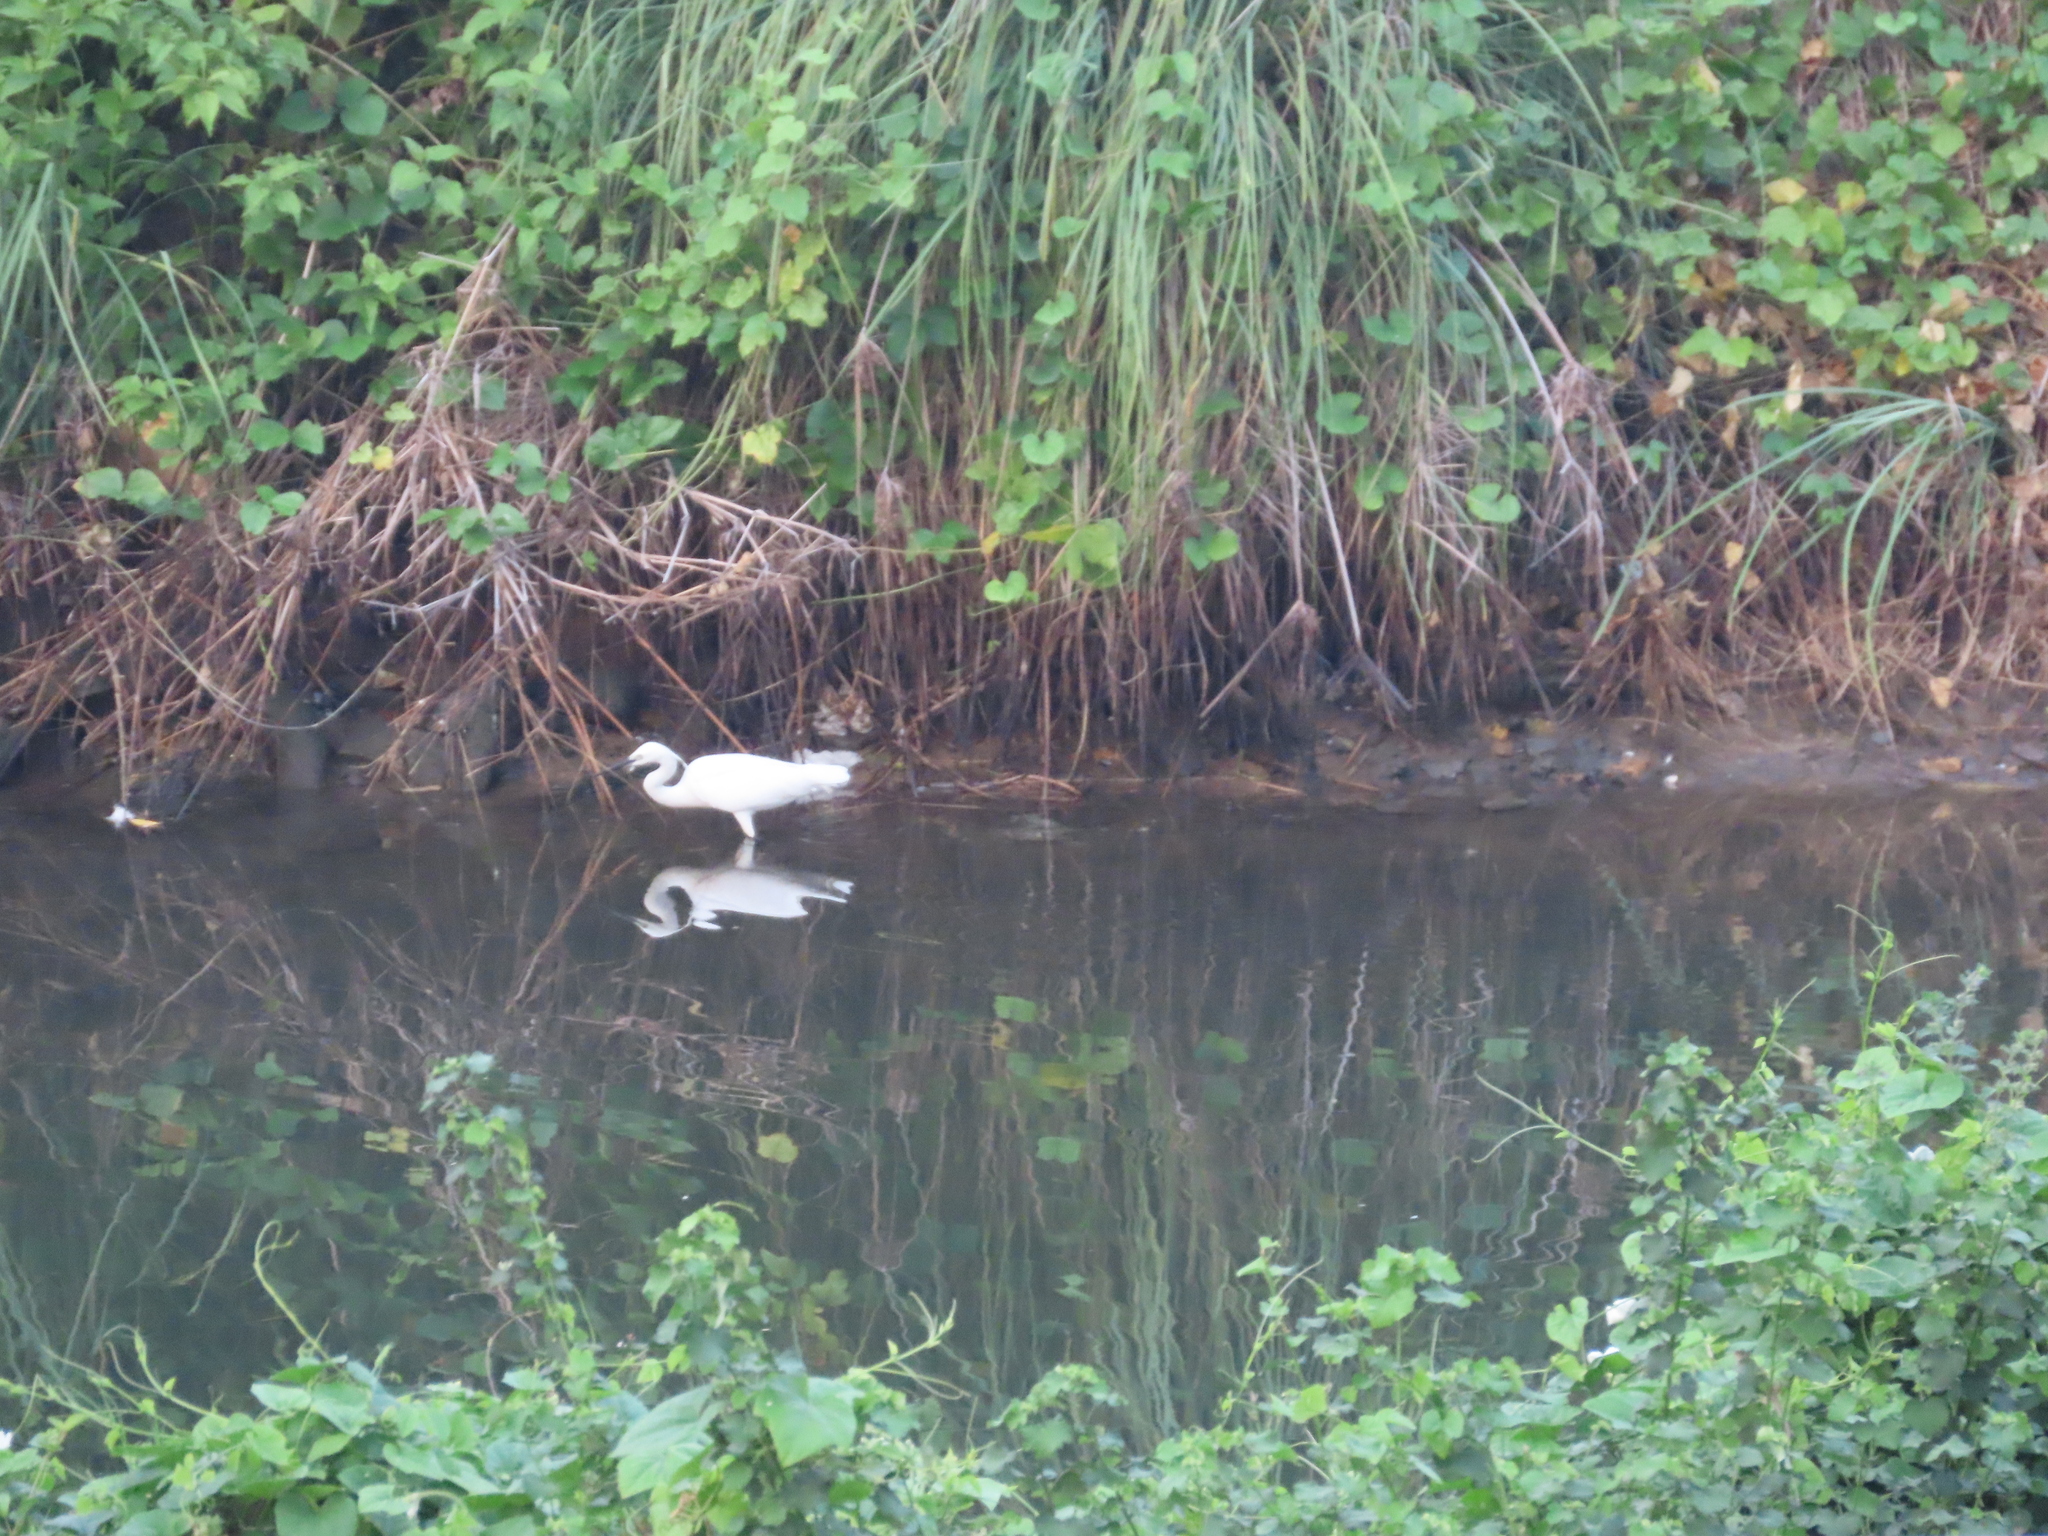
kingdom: Animalia
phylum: Chordata
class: Aves
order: Pelecaniformes
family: Ardeidae
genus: Egretta
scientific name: Egretta garzetta
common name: Little egret
